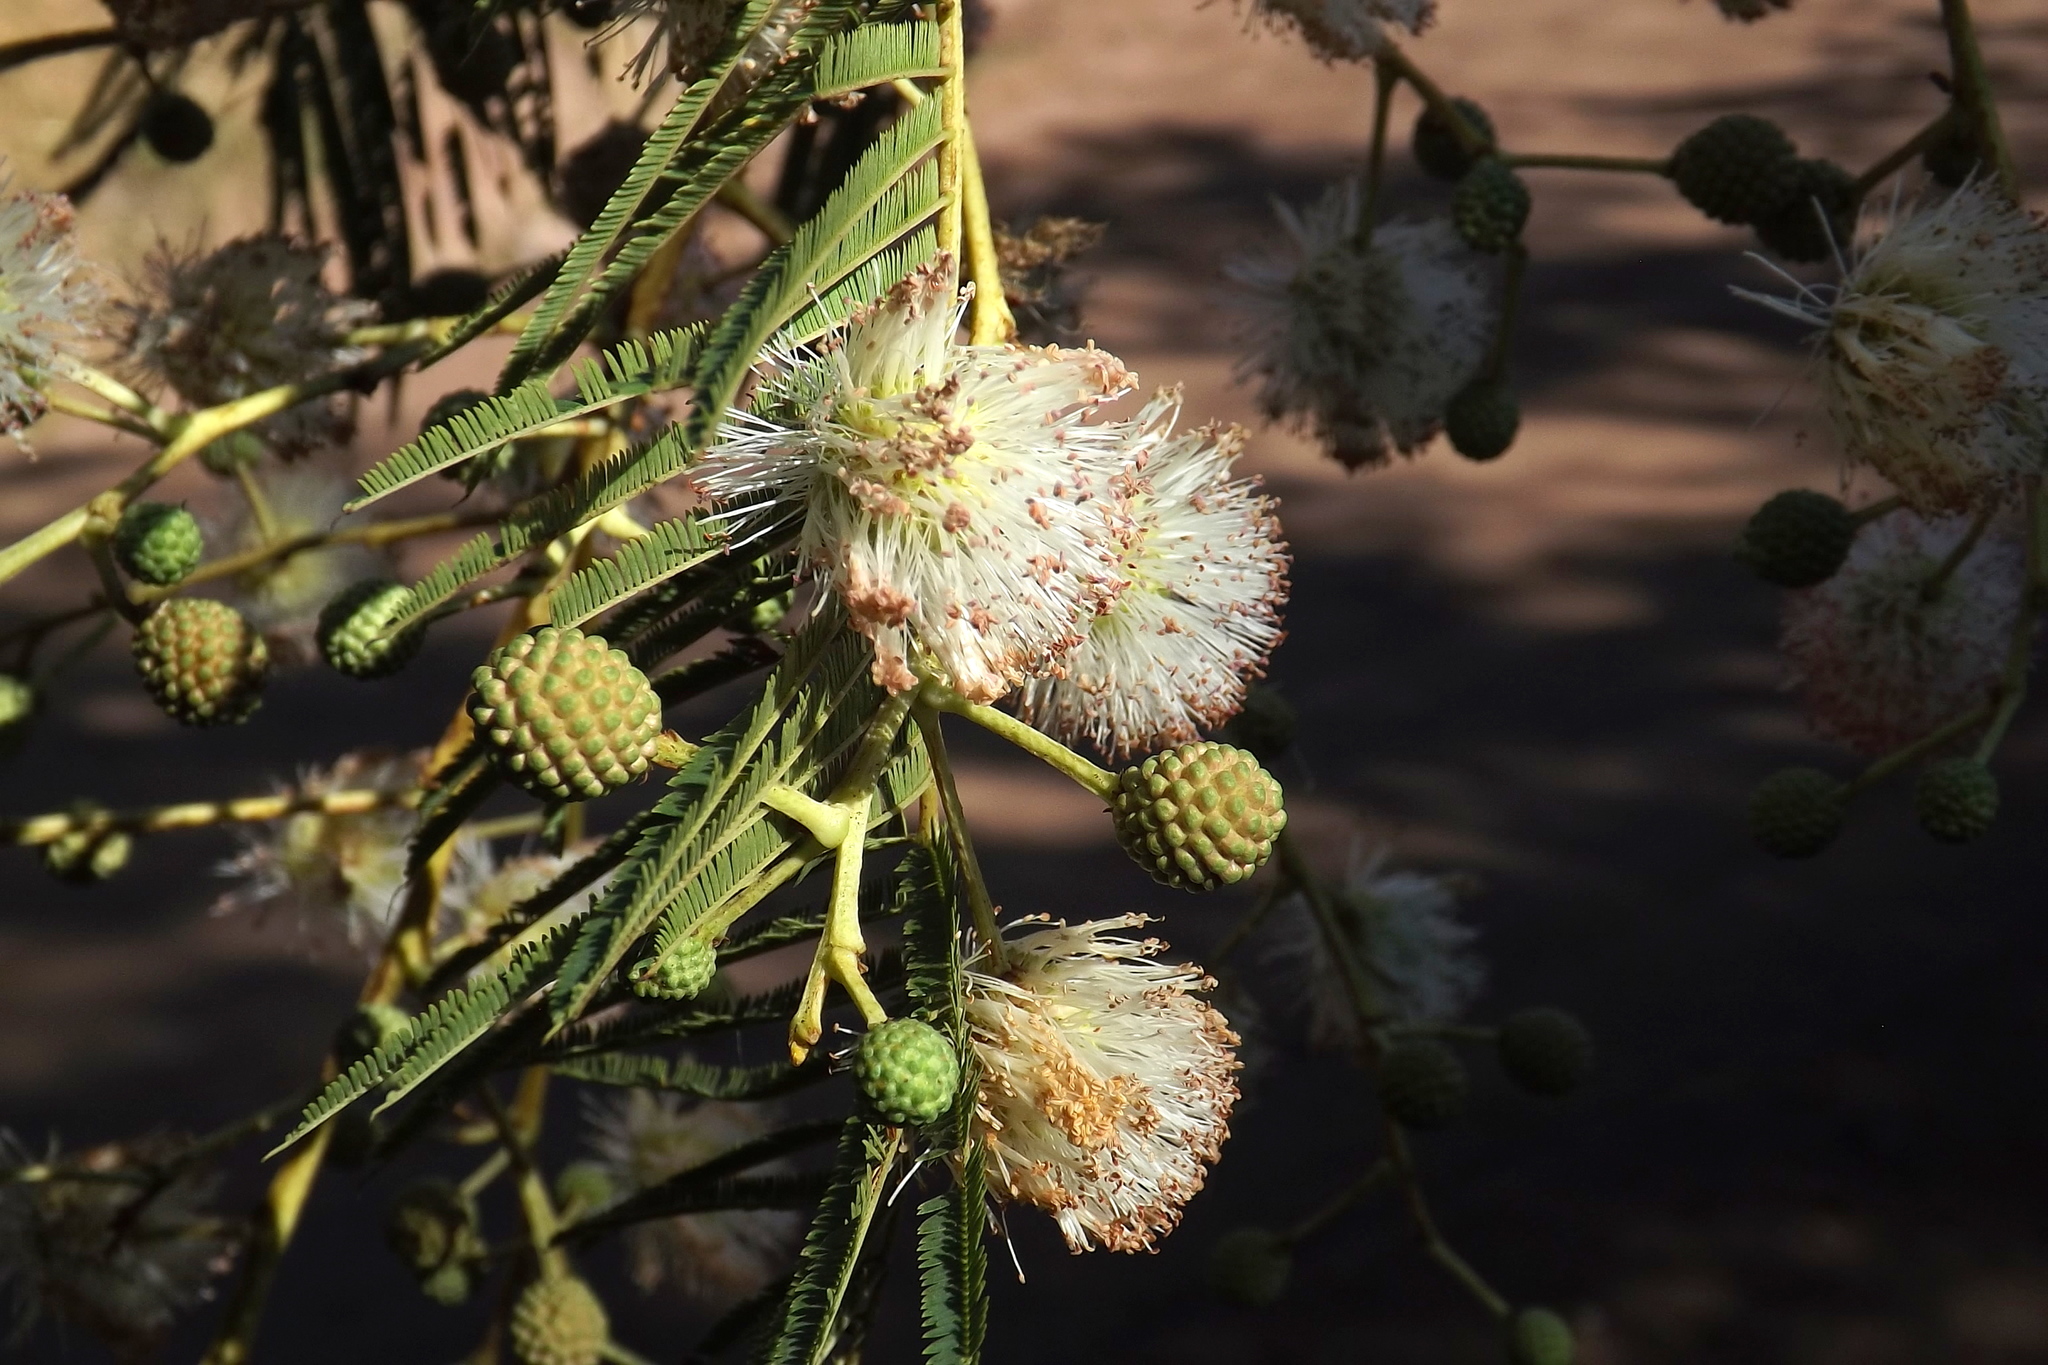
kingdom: Plantae
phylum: Tracheophyta
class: Magnoliopsida
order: Fabales
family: Fabaceae
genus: Leucaena
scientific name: Leucaena leucocephala
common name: White leadtree
